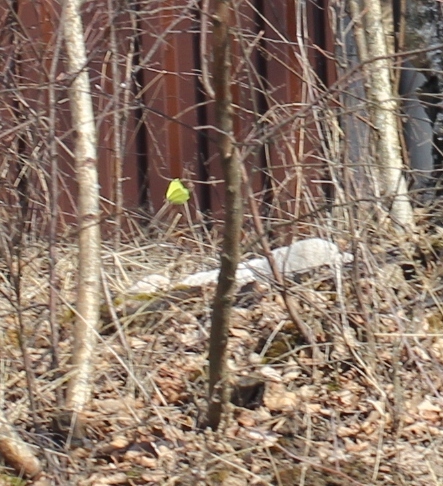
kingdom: Animalia
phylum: Arthropoda
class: Insecta
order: Lepidoptera
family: Pieridae
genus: Gonepteryx
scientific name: Gonepteryx rhamni
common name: Brimstone
